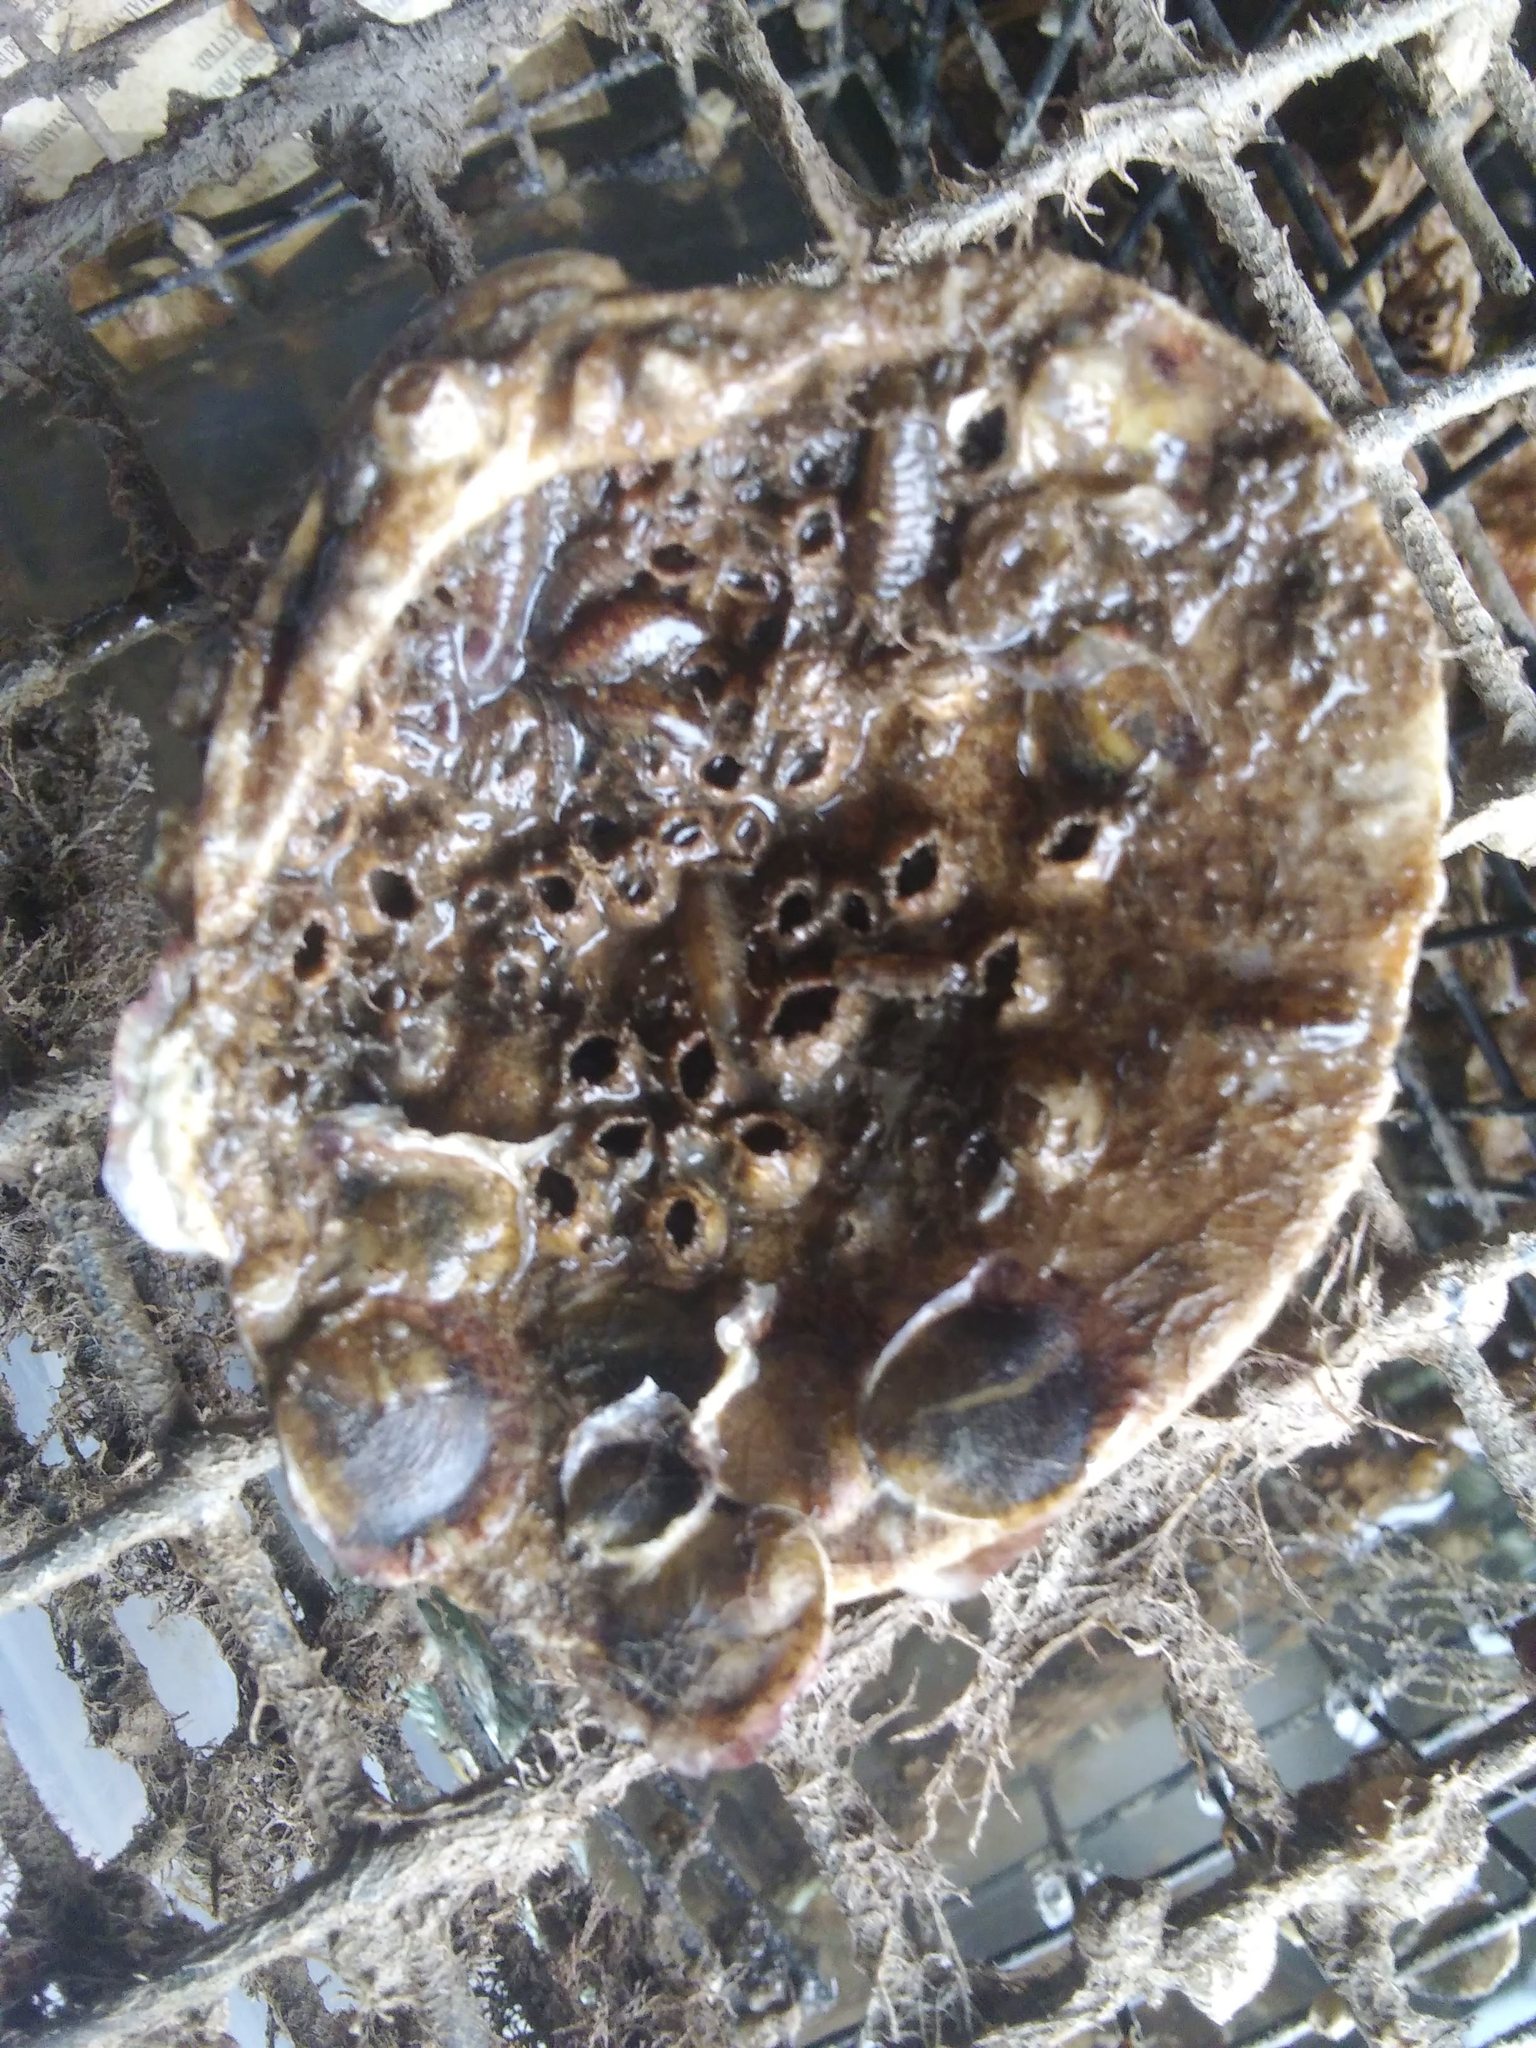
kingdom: Animalia
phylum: Mollusca
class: Bivalvia
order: Ostreida
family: Ostreidae
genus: Crassostrea
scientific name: Crassostrea virginica
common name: American oyster
